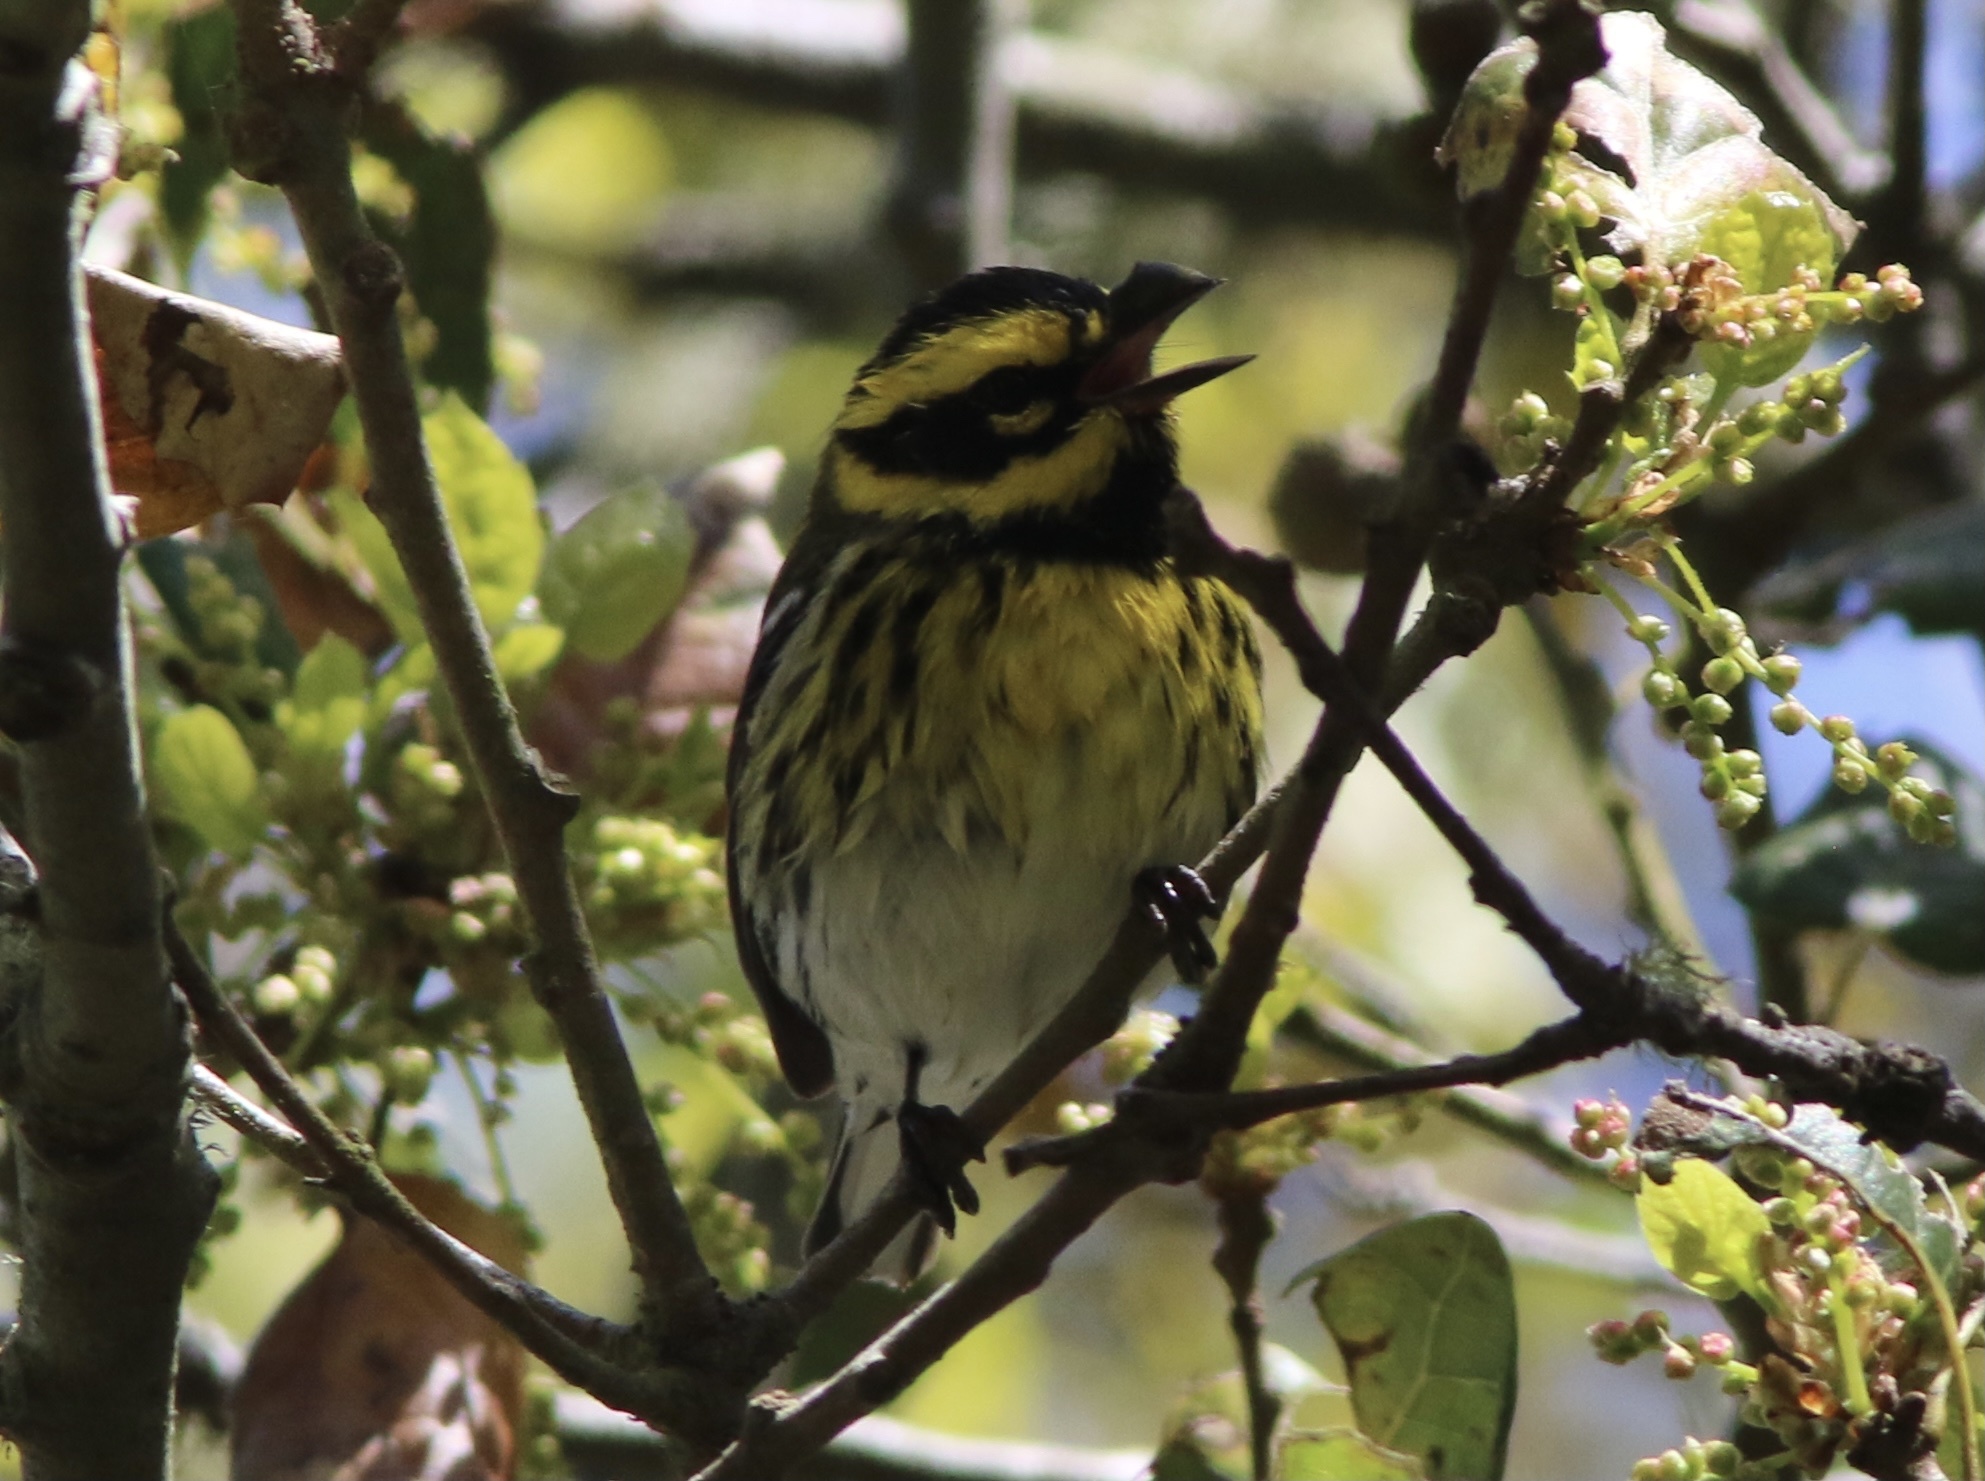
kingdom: Animalia
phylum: Chordata
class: Aves
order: Passeriformes
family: Parulidae
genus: Setophaga
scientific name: Setophaga townsendi
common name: Townsend's warbler
